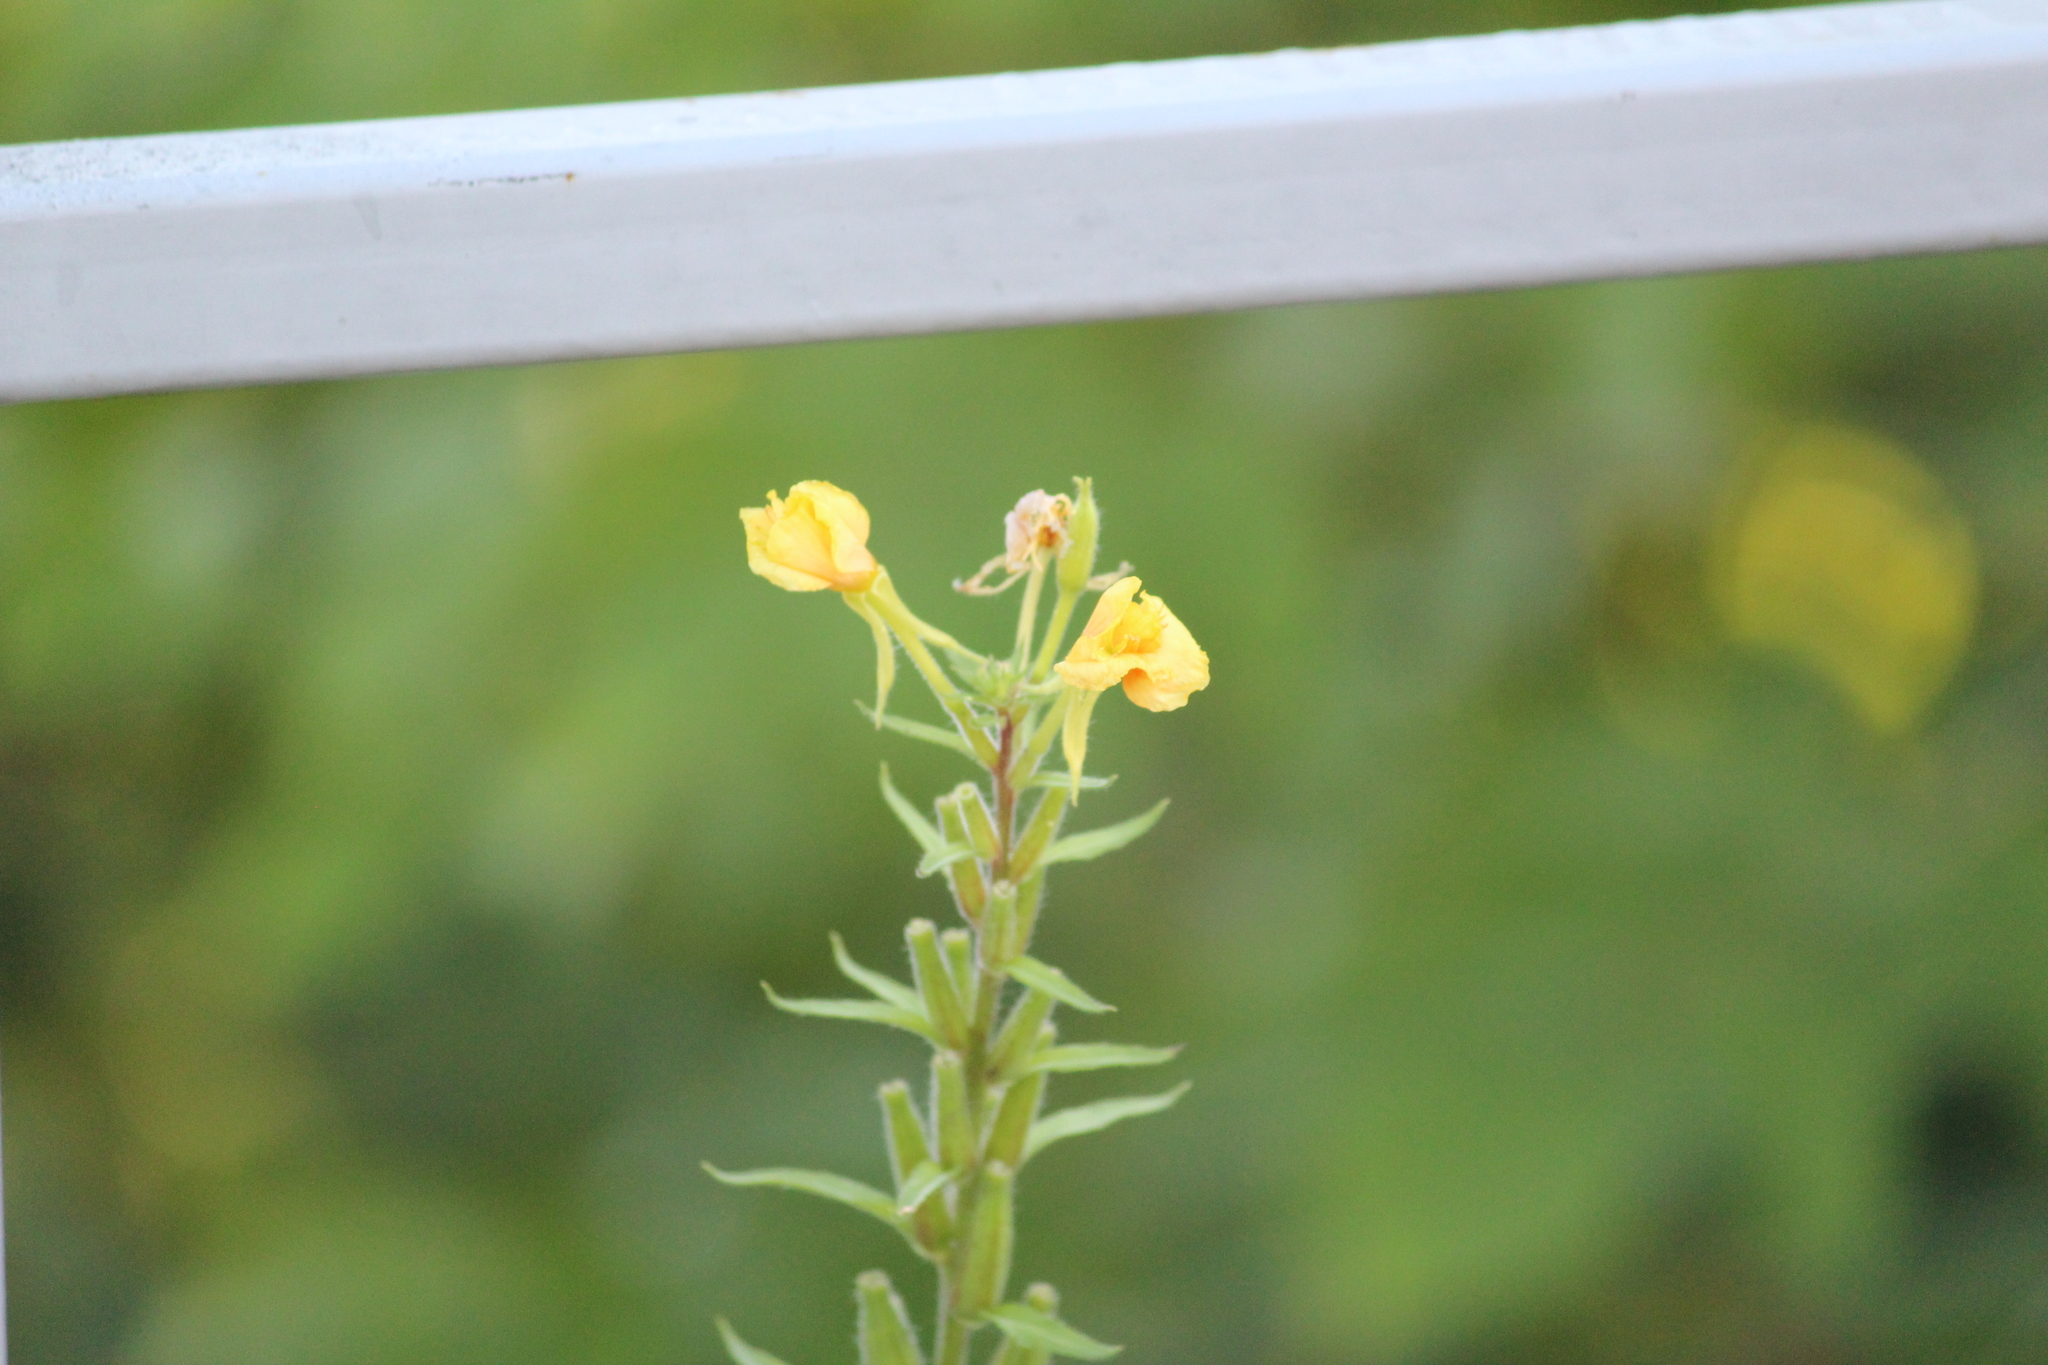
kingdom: Plantae
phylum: Tracheophyta
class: Magnoliopsida
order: Myrtales
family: Onagraceae
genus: Oenothera
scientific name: Oenothera rubricaulis
